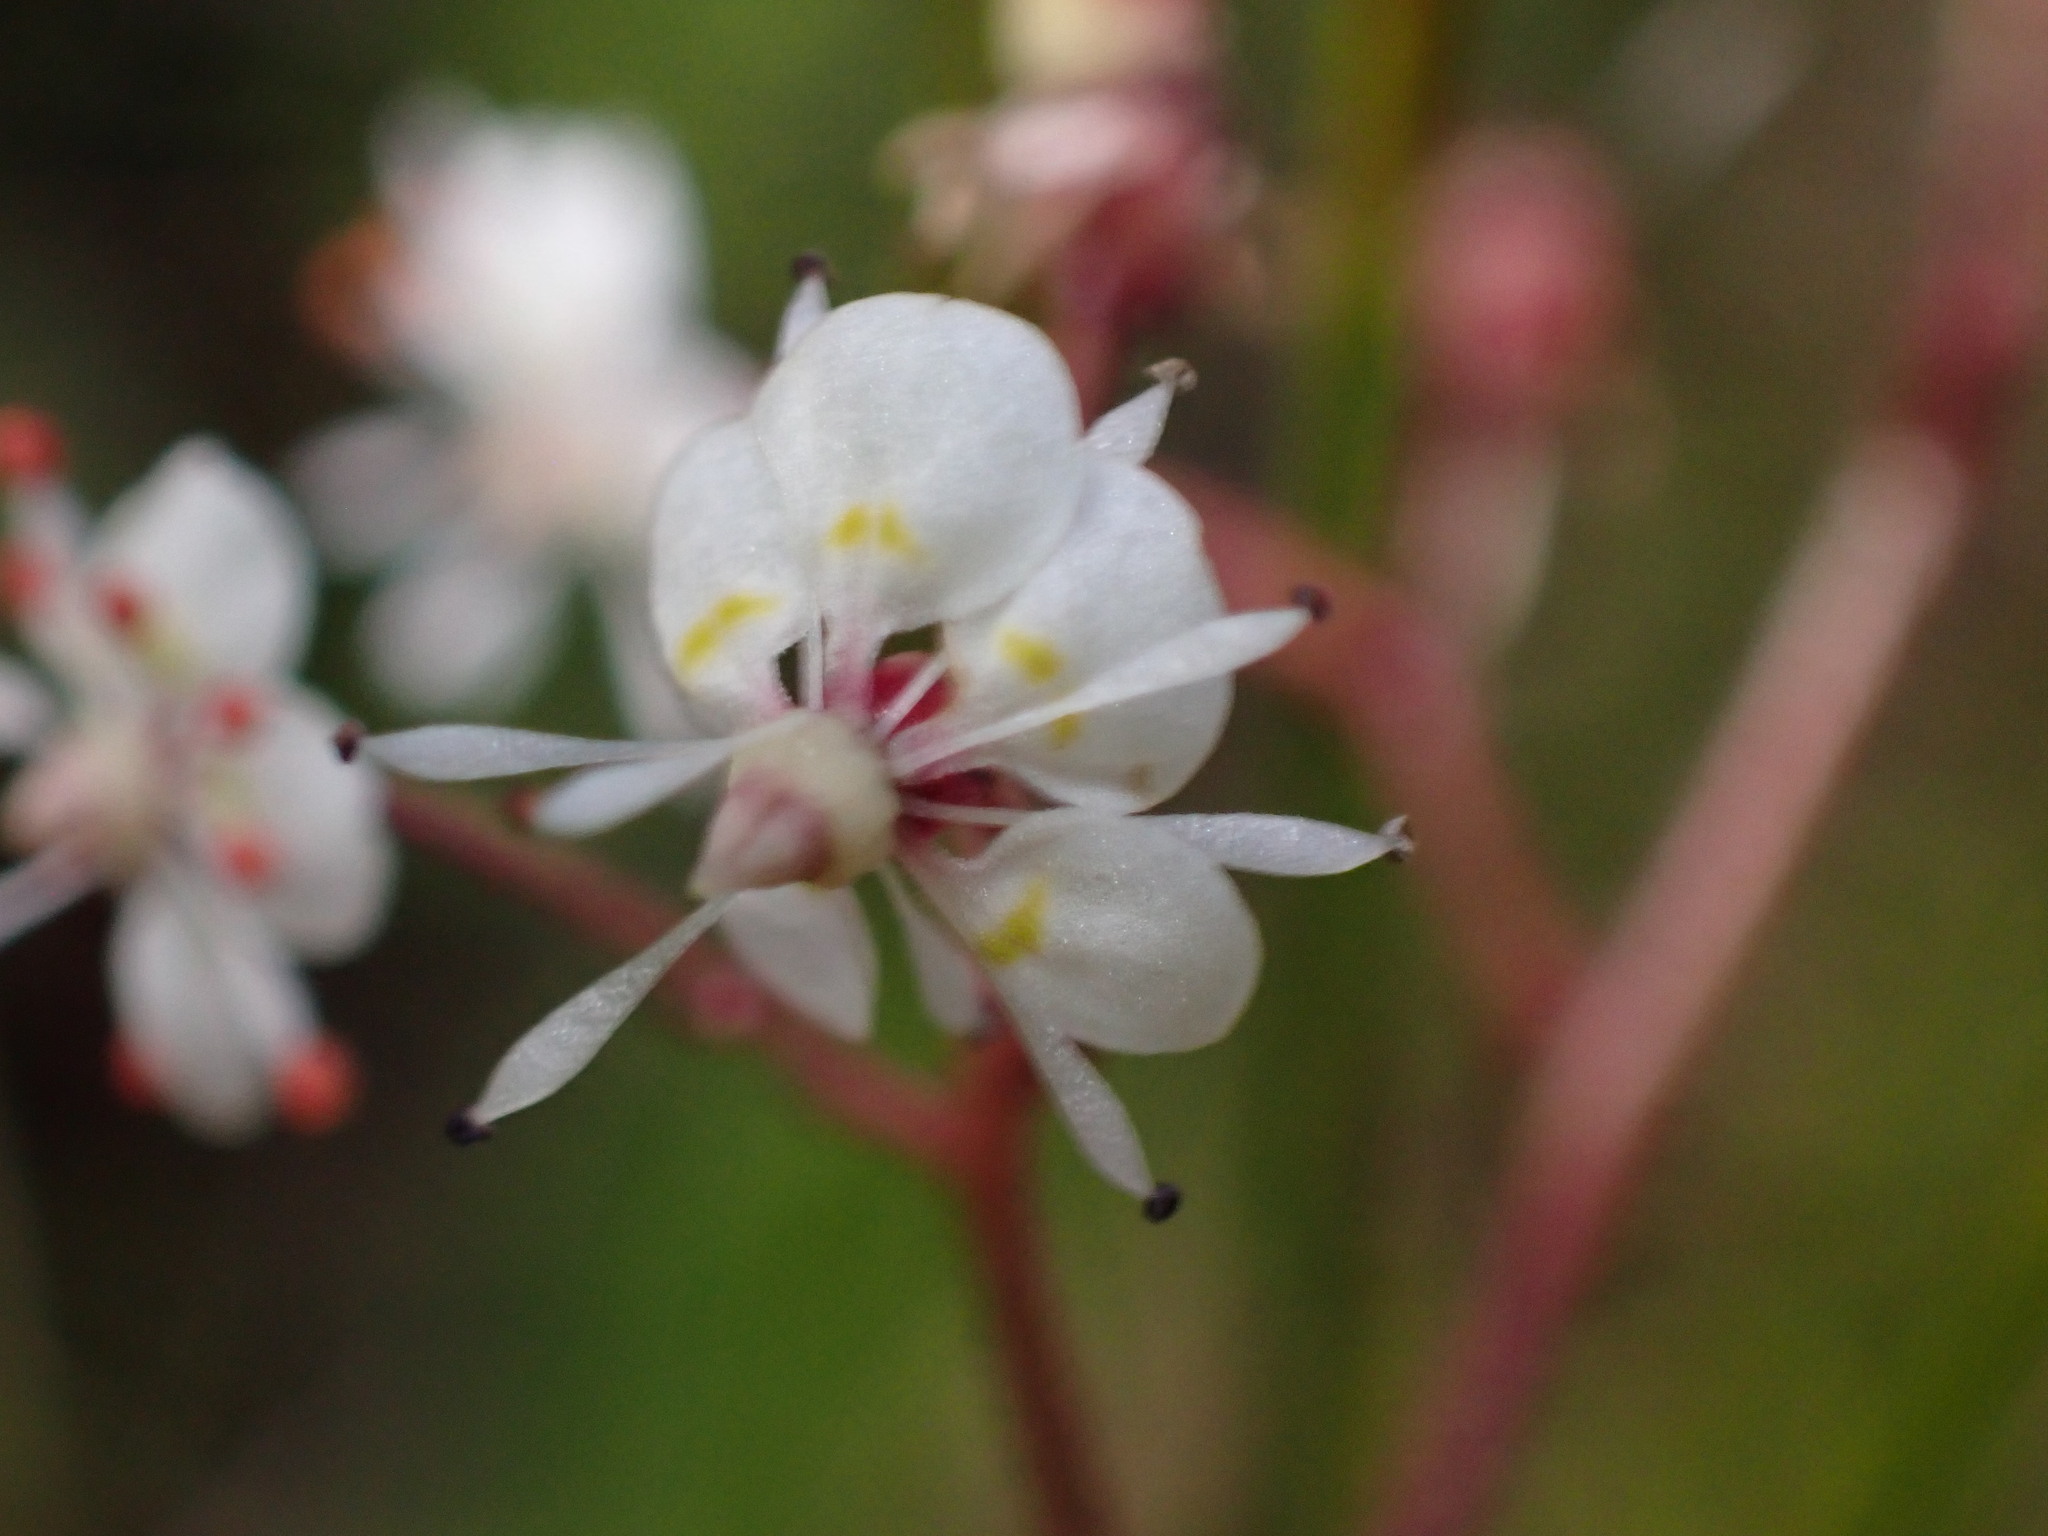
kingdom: Plantae
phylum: Tracheophyta
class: Magnoliopsida
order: Saxifragales
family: Saxifragaceae
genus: Micranthes
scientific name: Micranthes odontoloma
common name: Brook saxifrage
